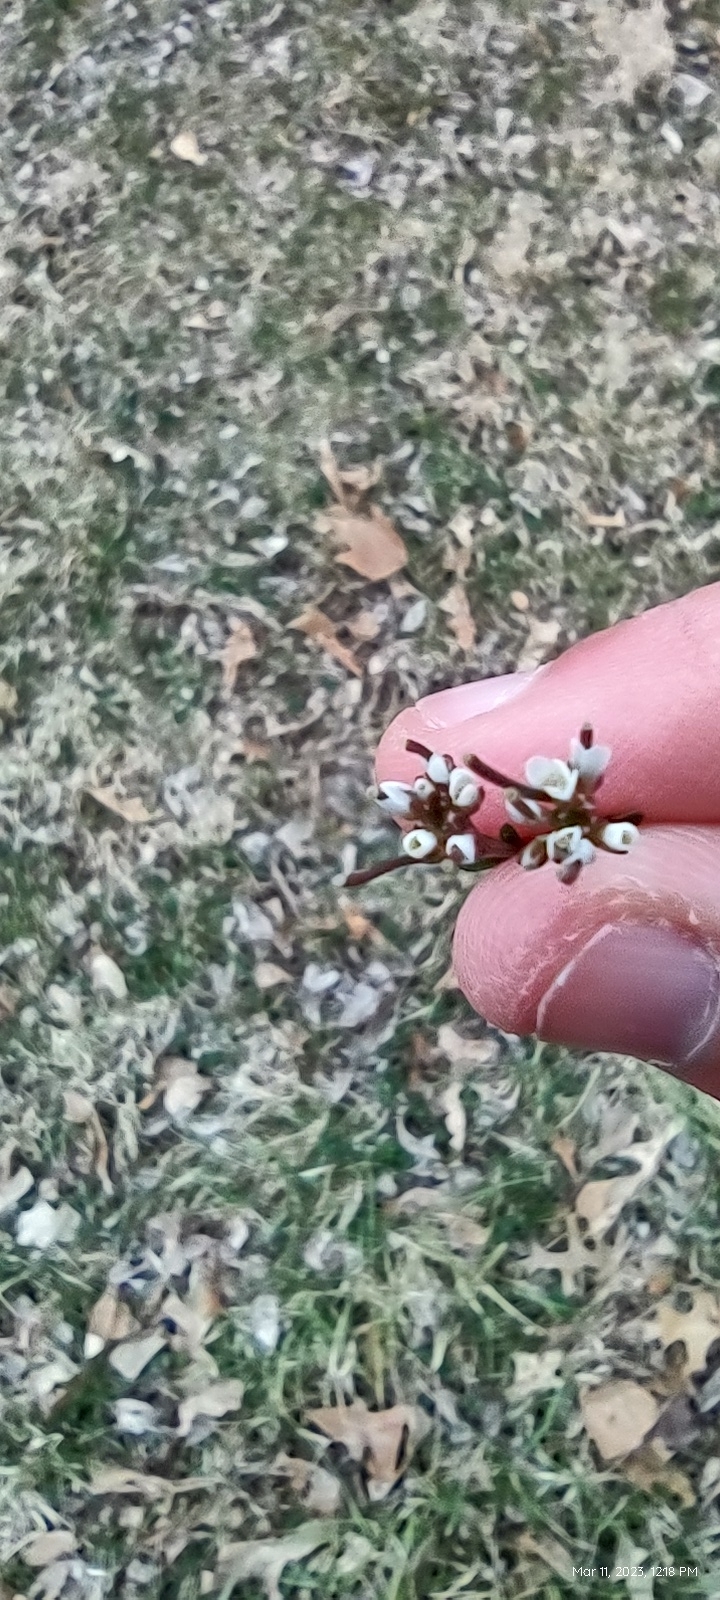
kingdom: Plantae
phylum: Tracheophyta
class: Magnoliopsida
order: Brassicales
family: Brassicaceae
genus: Cardamine
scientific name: Cardamine hirsuta
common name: Hairy bittercress
